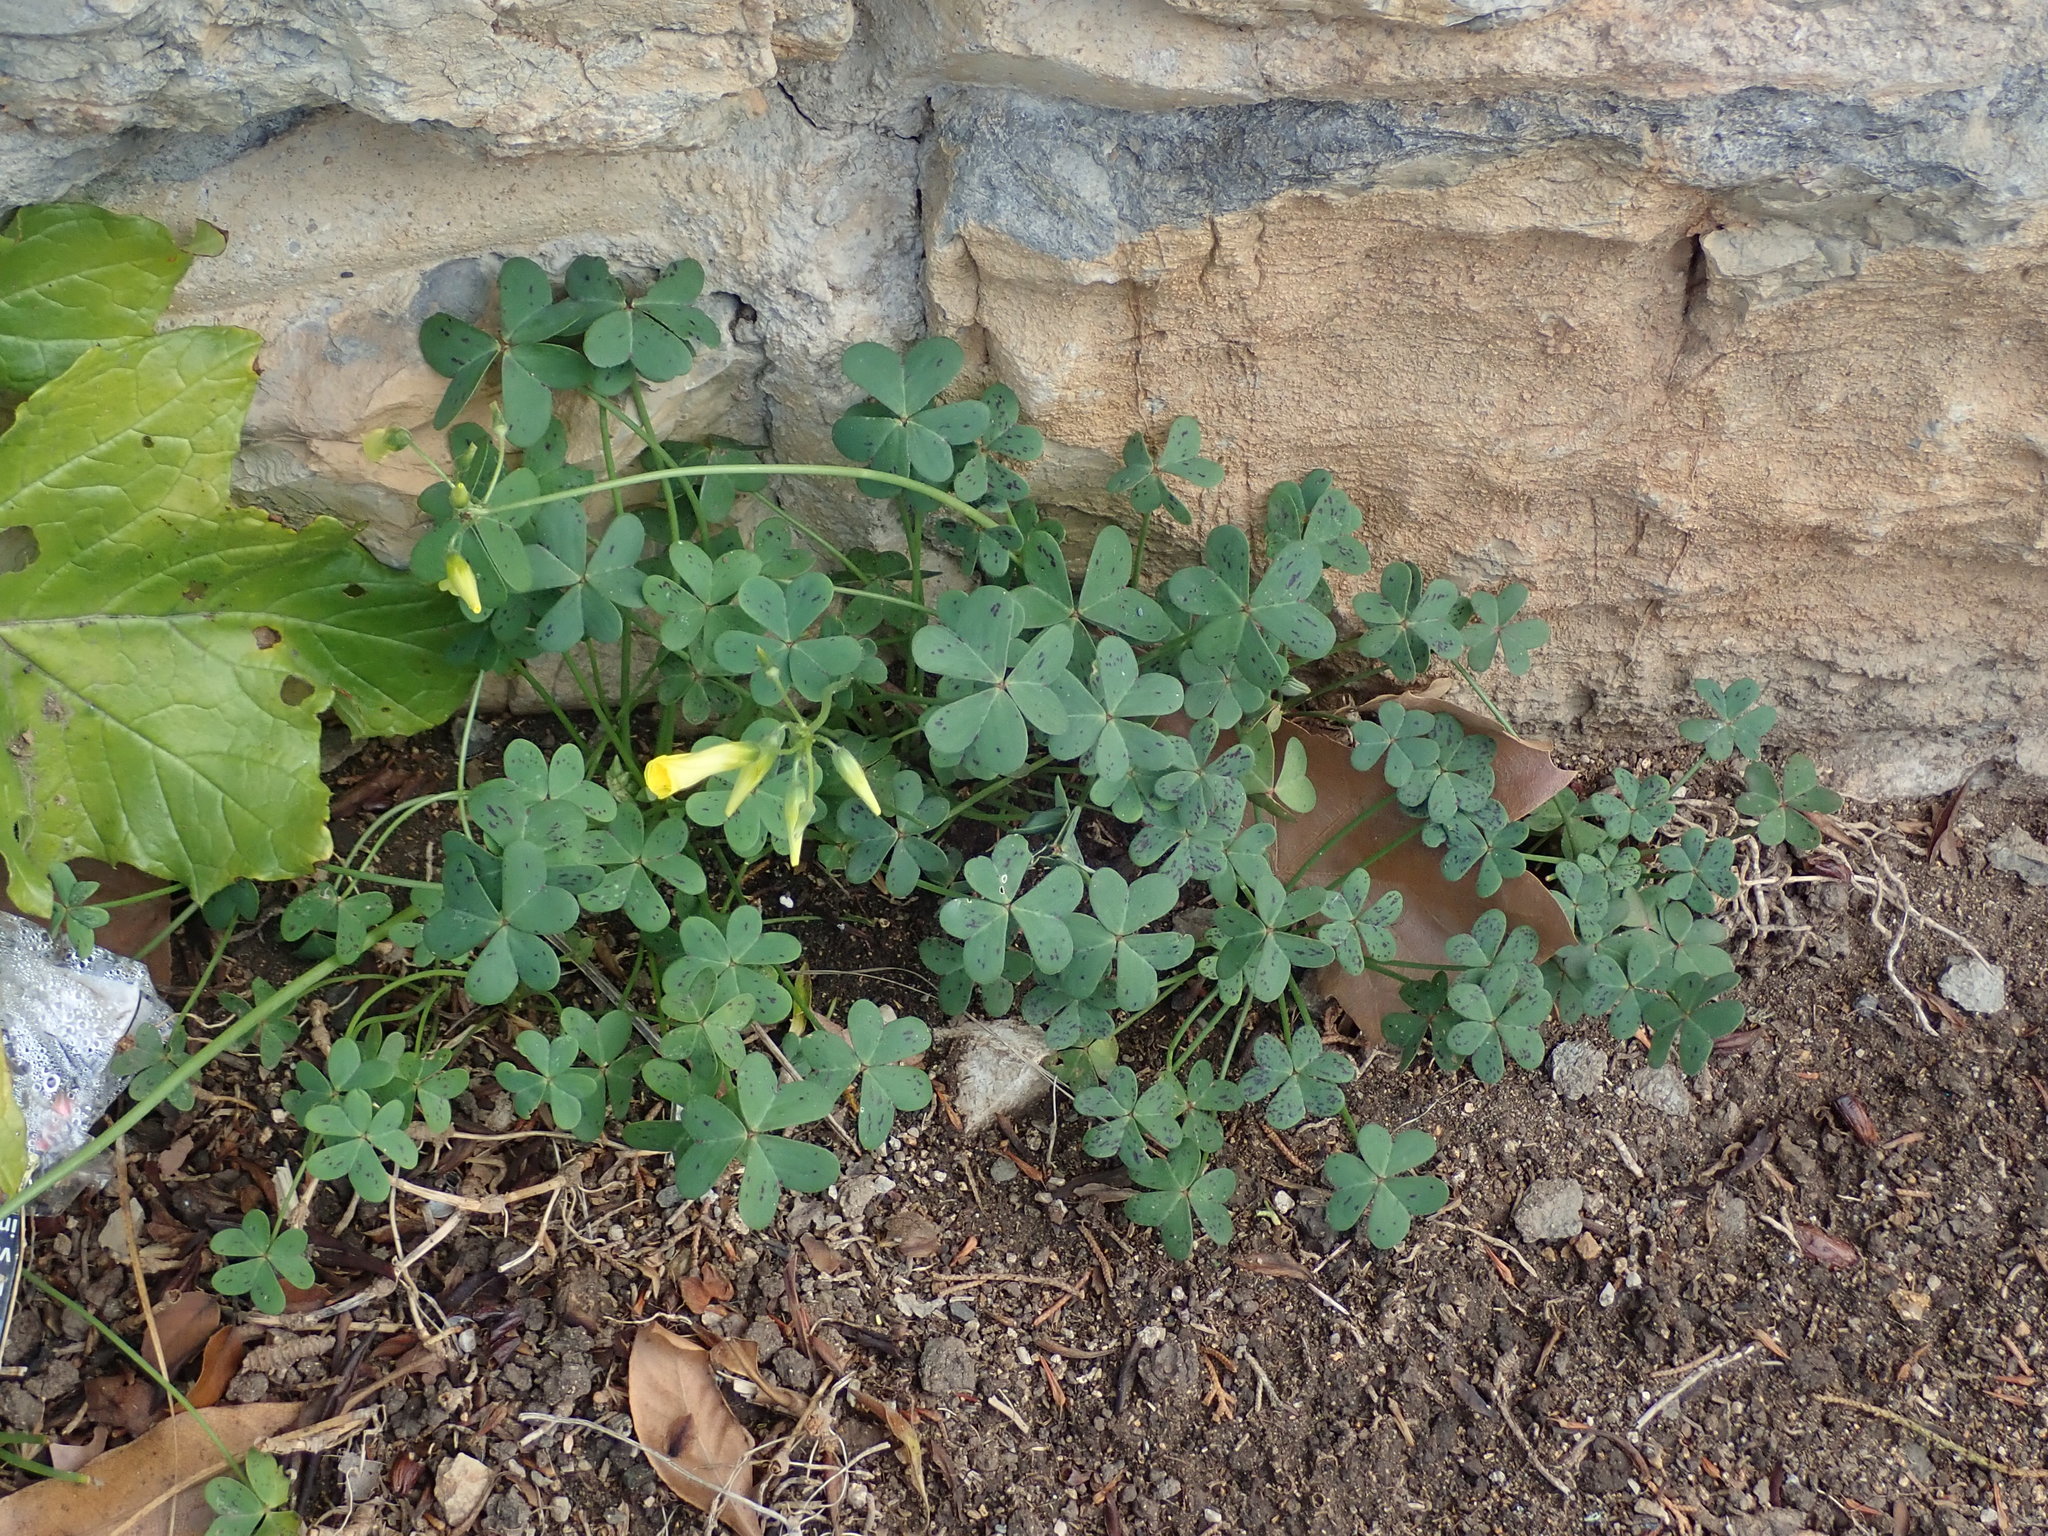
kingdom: Plantae
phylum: Tracheophyta
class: Magnoliopsida
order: Oxalidales
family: Oxalidaceae
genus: Oxalis
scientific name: Oxalis pes-caprae
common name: Bermuda-buttercup
